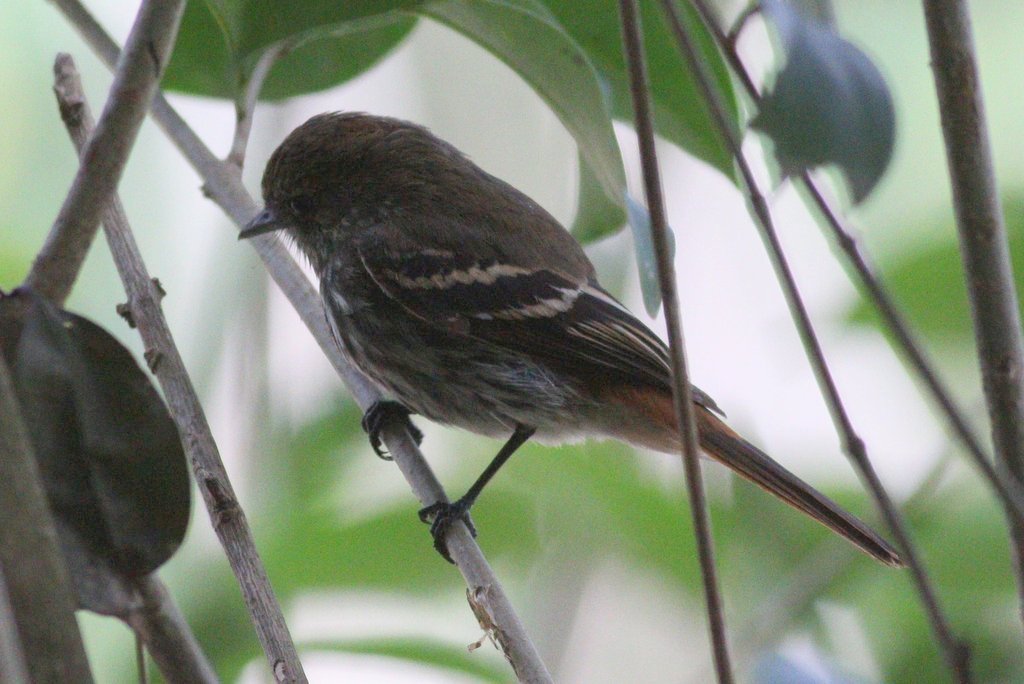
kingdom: Animalia
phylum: Chordata
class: Aves
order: Passeriformes
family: Tyrannidae
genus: Knipolegus
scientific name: Knipolegus cyanirostris
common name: Blue-billed black tyrant
